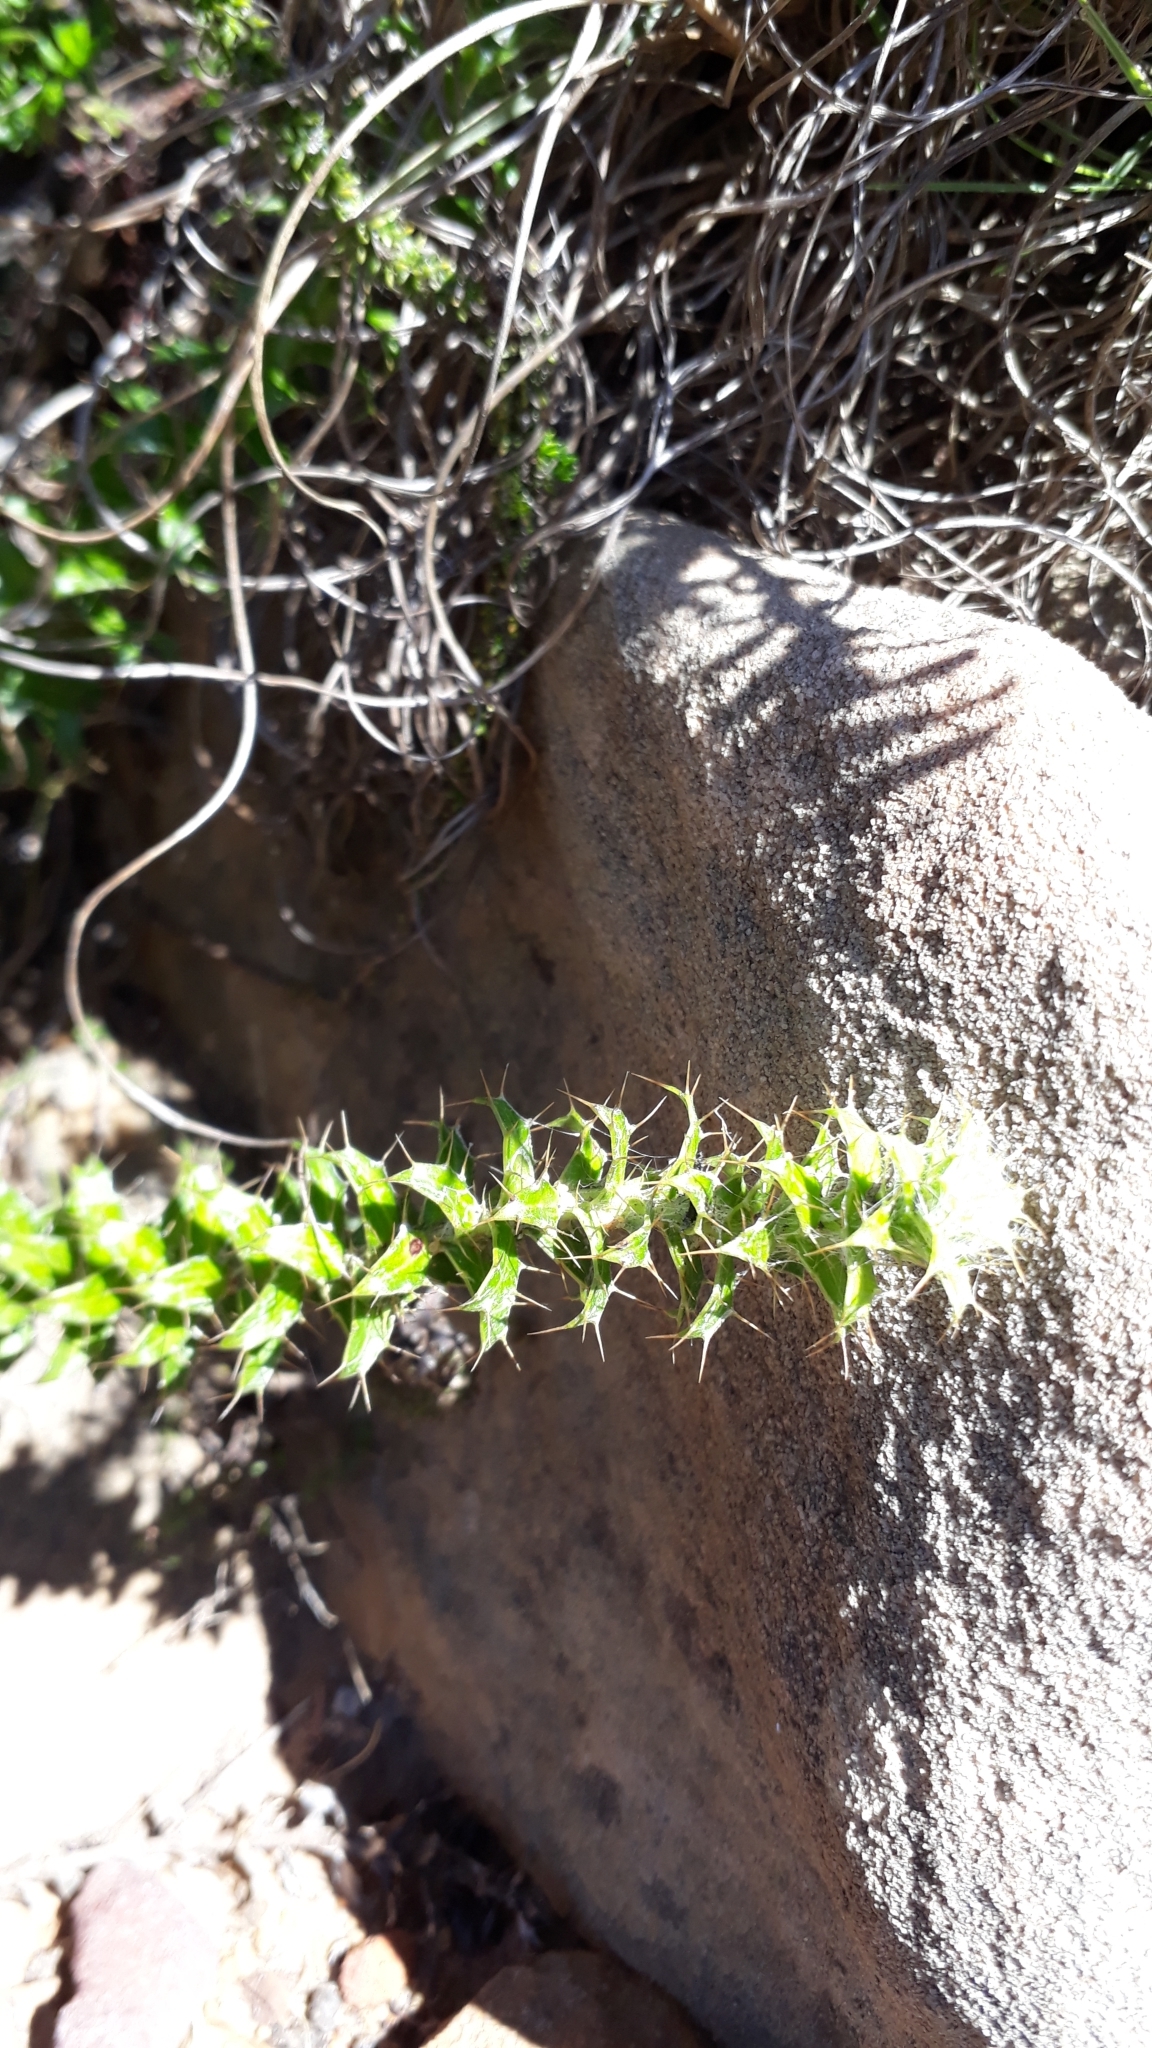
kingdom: Plantae
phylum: Tracheophyta
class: Magnoliopsida
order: Asterales
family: Asteraceae
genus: Cullumia
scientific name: Cullumia setosa
